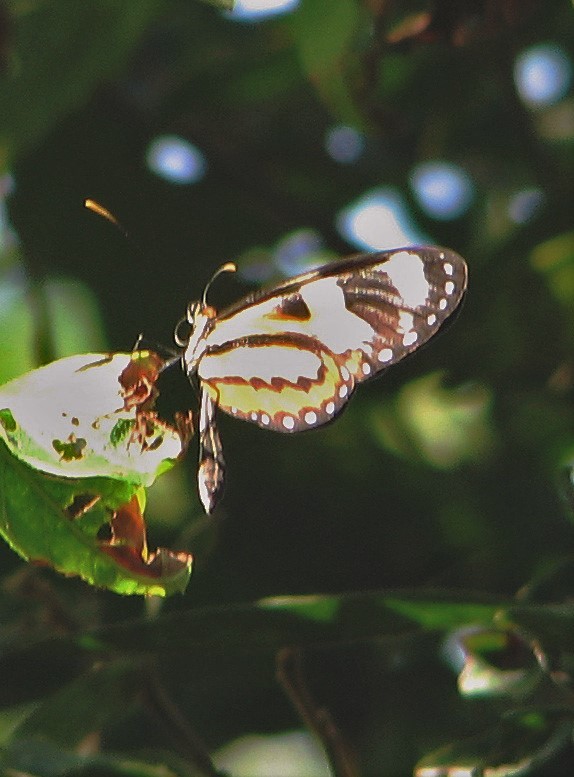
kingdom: Animalia
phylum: Arthropoda
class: Insecta
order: Lepidoptera
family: Nymphalidae
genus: Mechanitis
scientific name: Mechanitis lysimnia
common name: Lysimnia tigerwing
